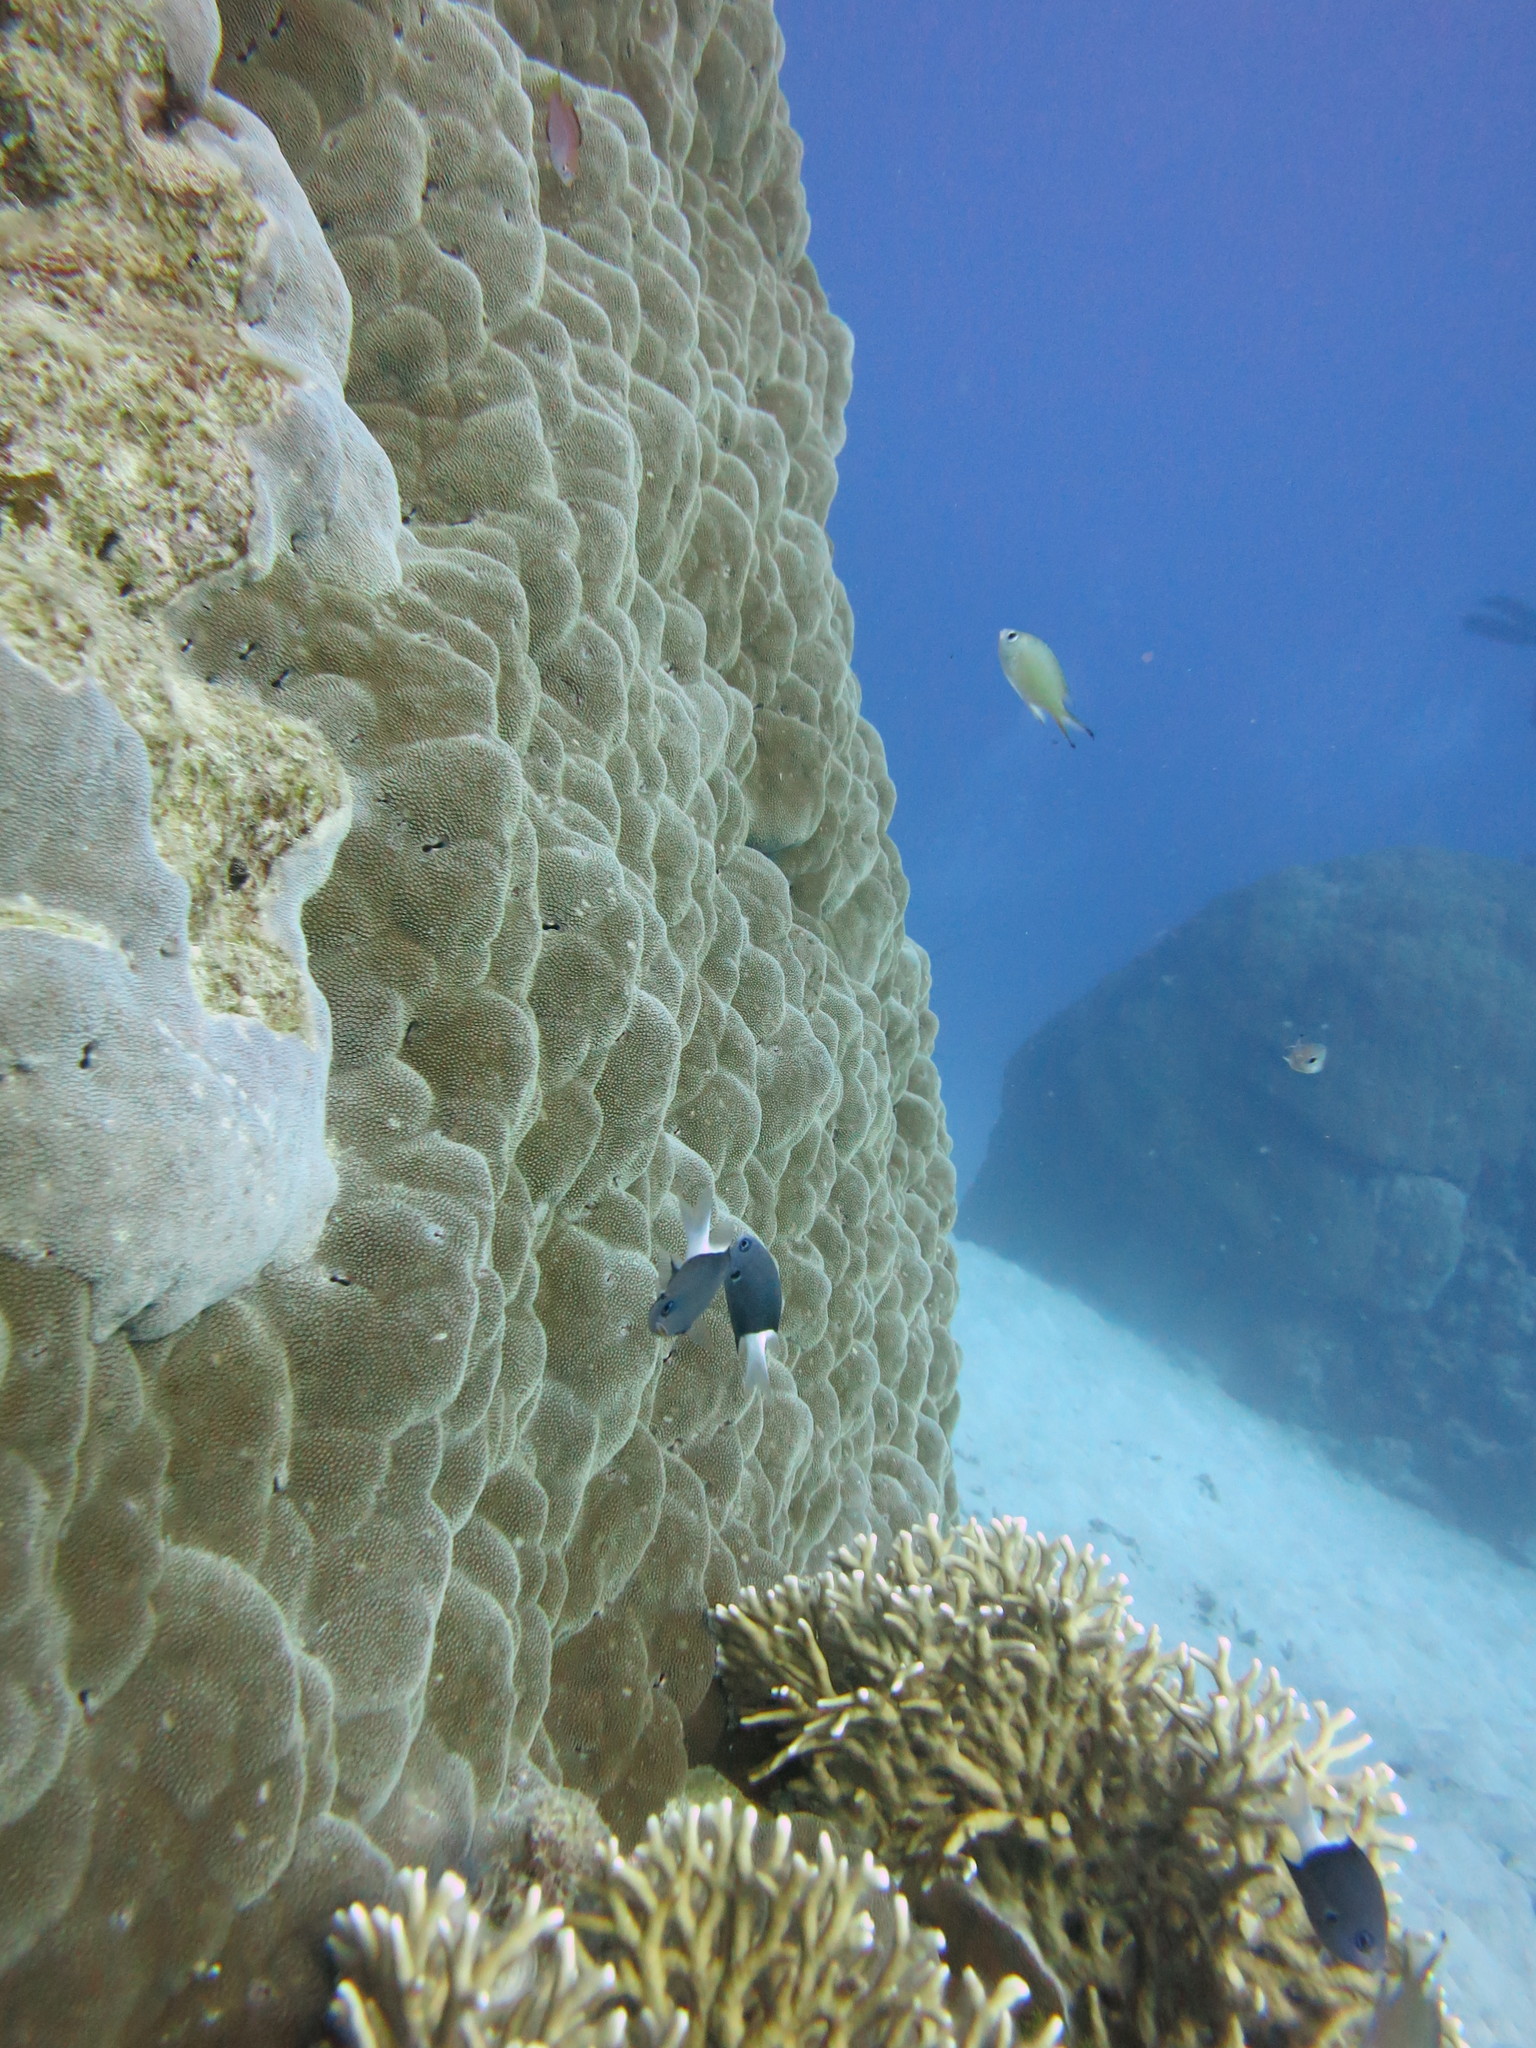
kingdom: Animalia
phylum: Chordata
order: Perciformes
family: Pomacentridae
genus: Pycnochromis
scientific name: Pycnochromis margaritifer
